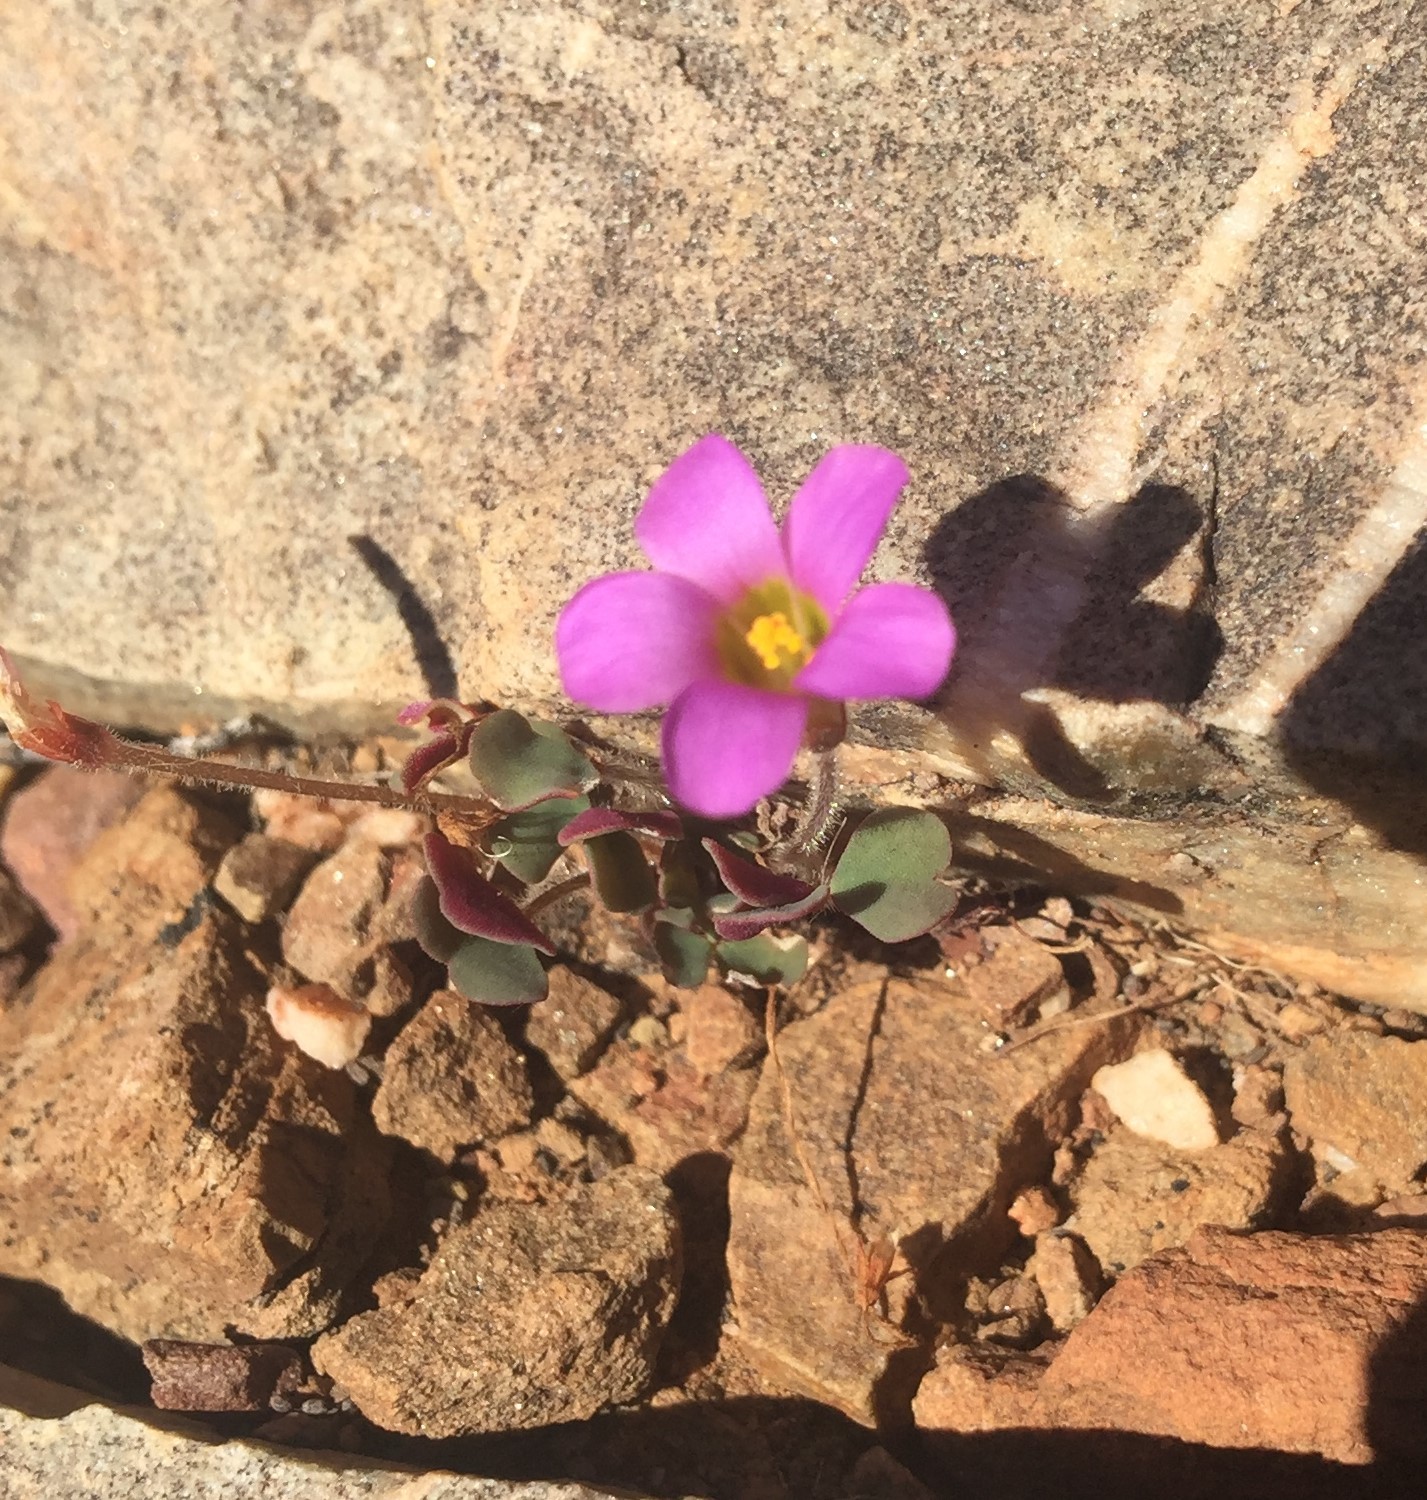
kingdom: Plantae
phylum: Tracheophyta
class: Magnoliopsida
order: Oxalidales
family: Oxalidaceae
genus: Oxalis
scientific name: Oxalis punctata
